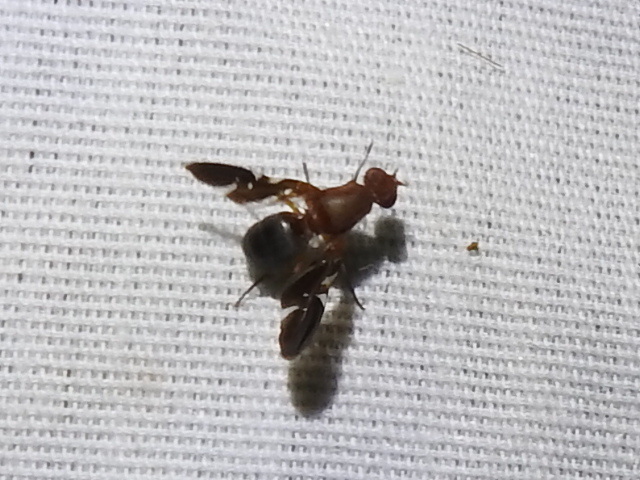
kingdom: Animalia
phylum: Arthropoda
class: Insecta
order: Diptera
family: Ulidiidae
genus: Delphinia
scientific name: Delphinia picta
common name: Common picture-winged fly
